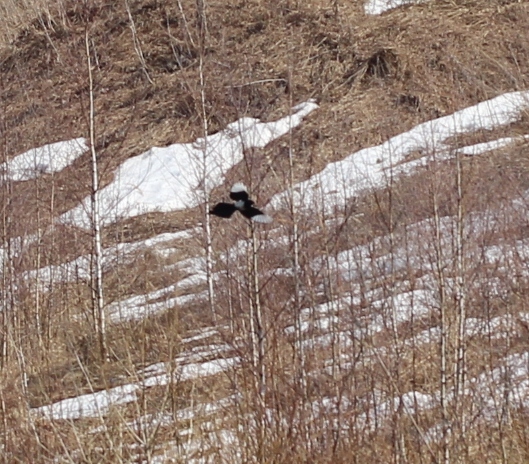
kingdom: Animalia
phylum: Chordata
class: Aves
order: Passeriformes
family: Corvidae
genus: Pica
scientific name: Pica pica
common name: Eurasian magpie
